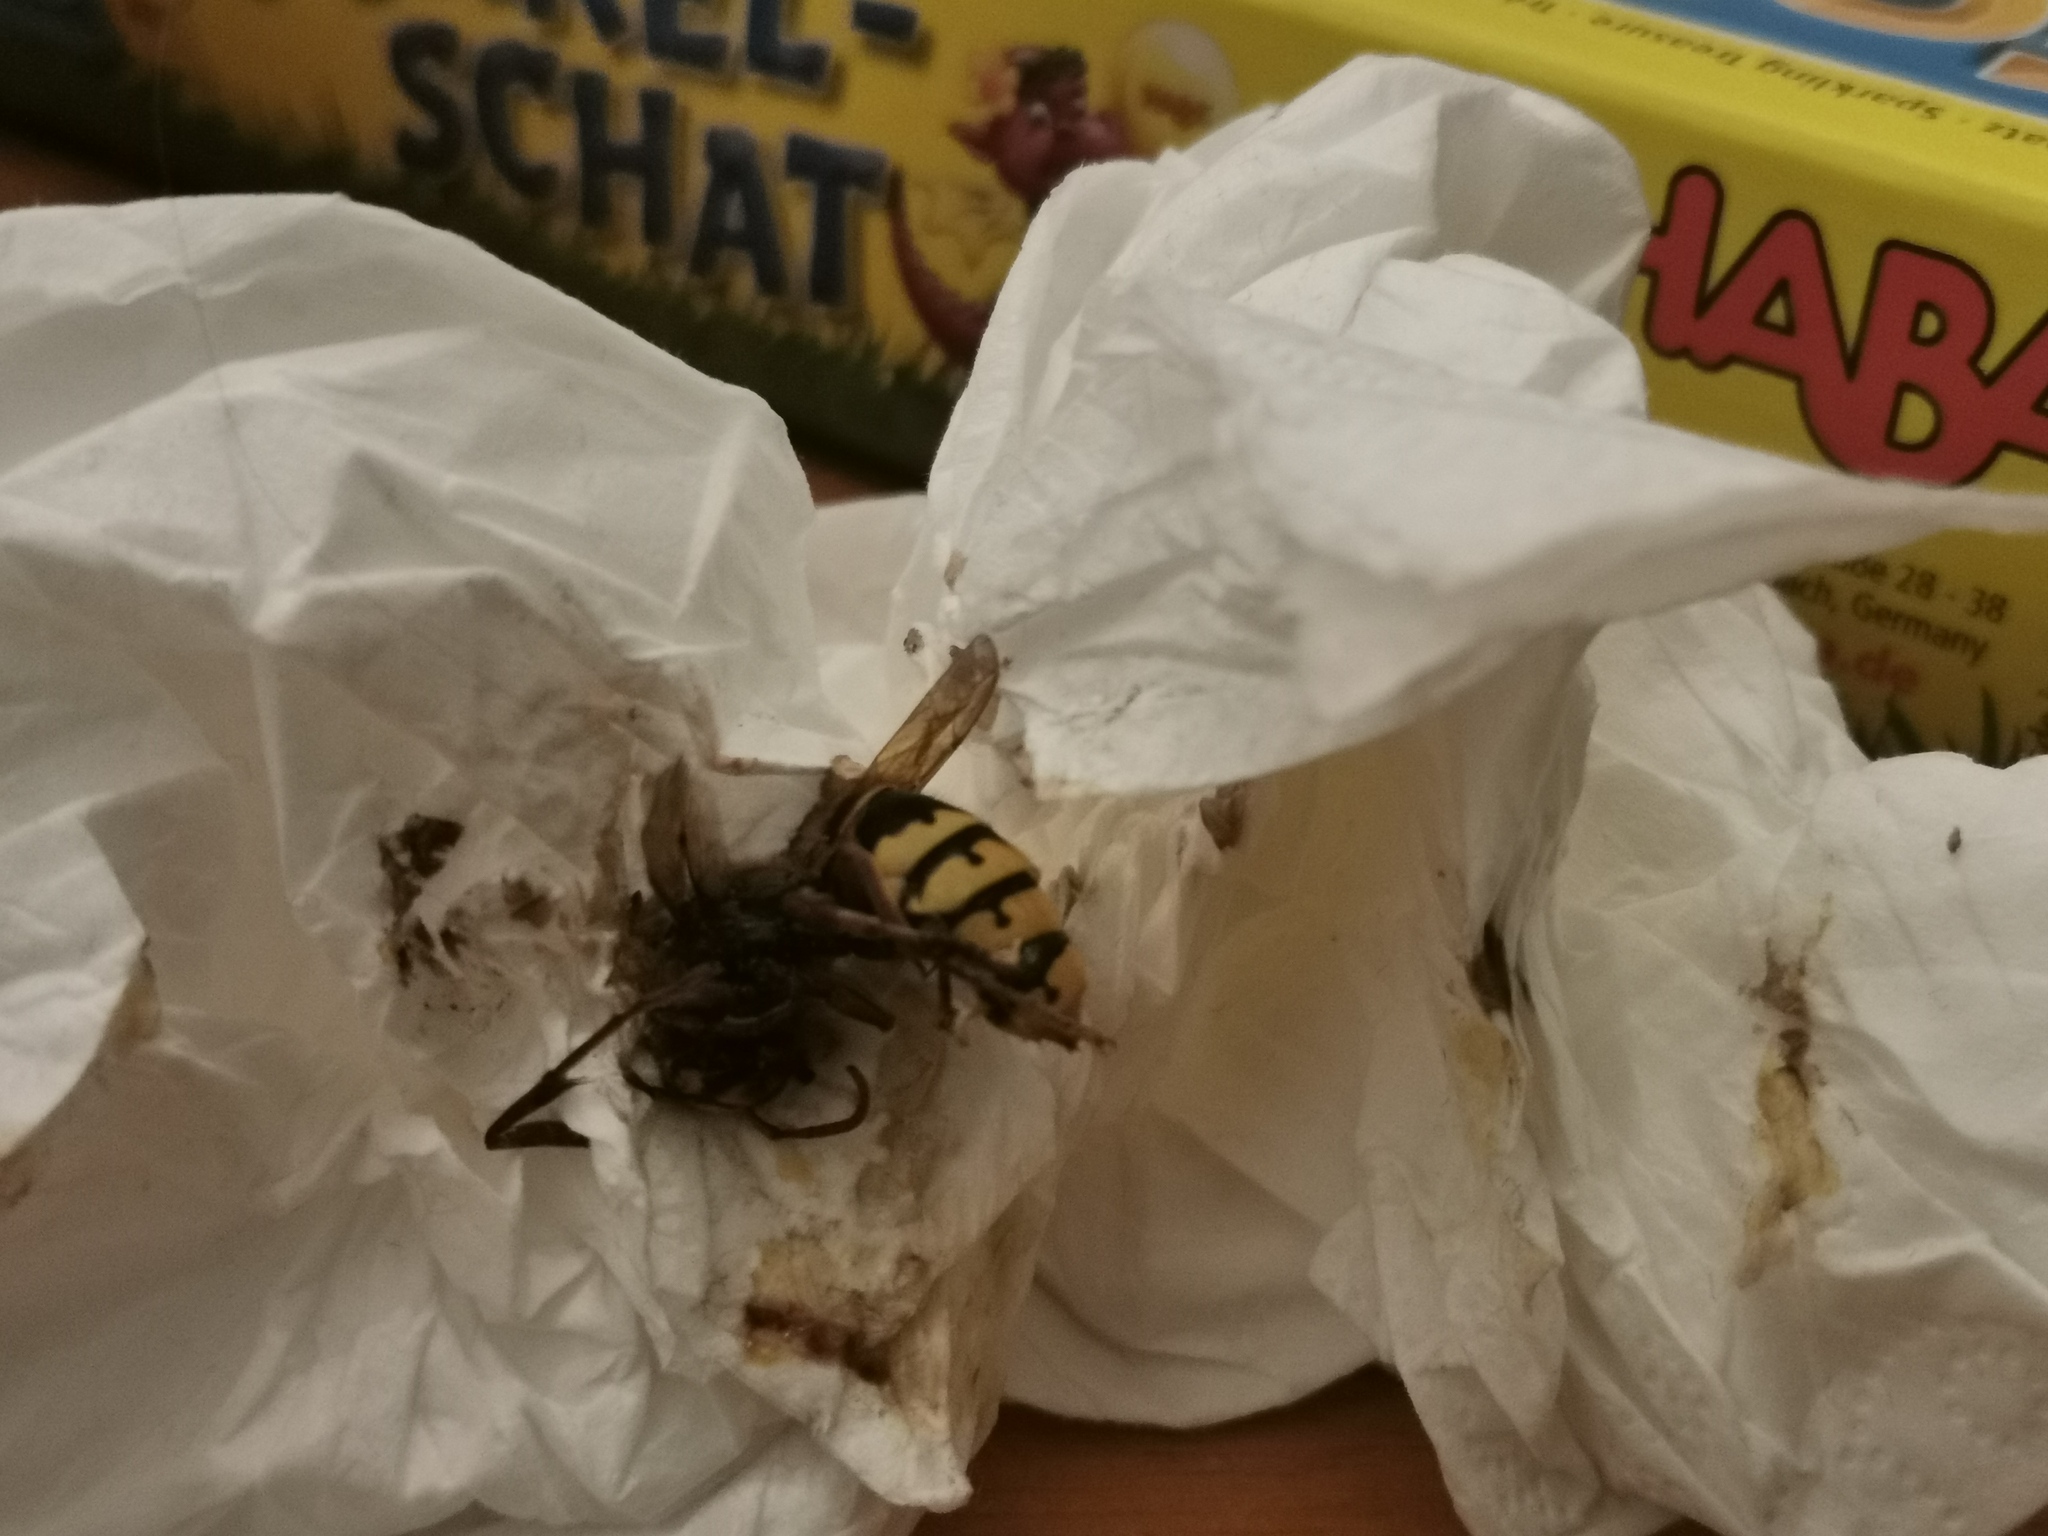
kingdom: Animalia
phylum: Arthropoda
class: Insecta
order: Hymenoptera
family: Vespidae
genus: Vespa
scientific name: Vespa crabro
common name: Hornet
